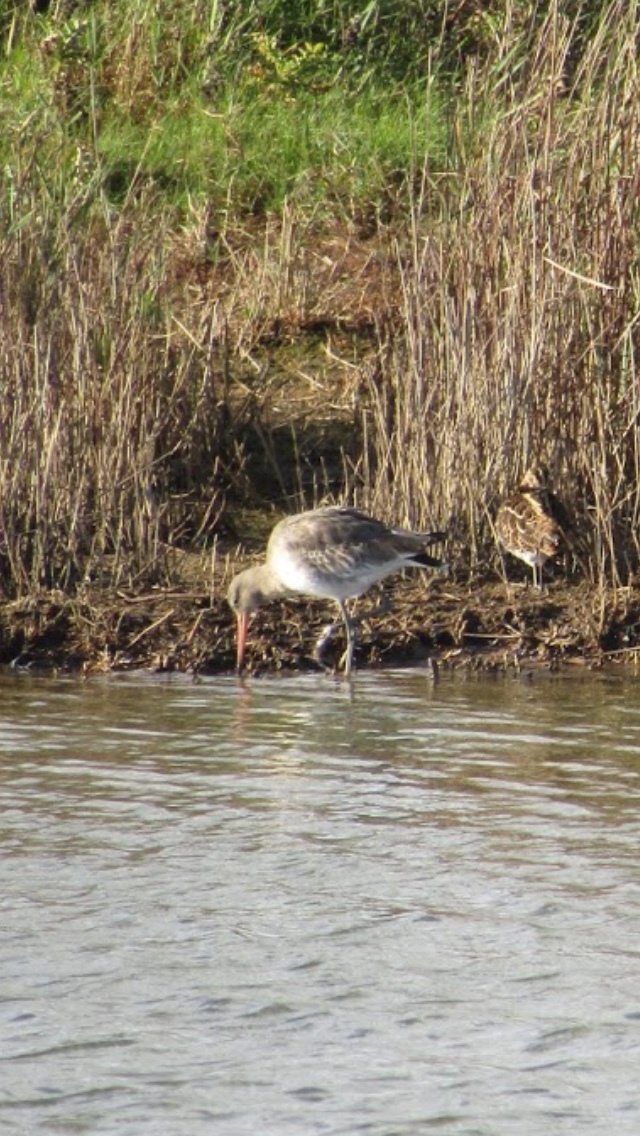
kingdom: Animalia
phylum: Chordata
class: Aves
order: Charadriiformes
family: Scolopacidae
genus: Limosa
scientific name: Limosa limosa
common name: Black-tailed godwit
